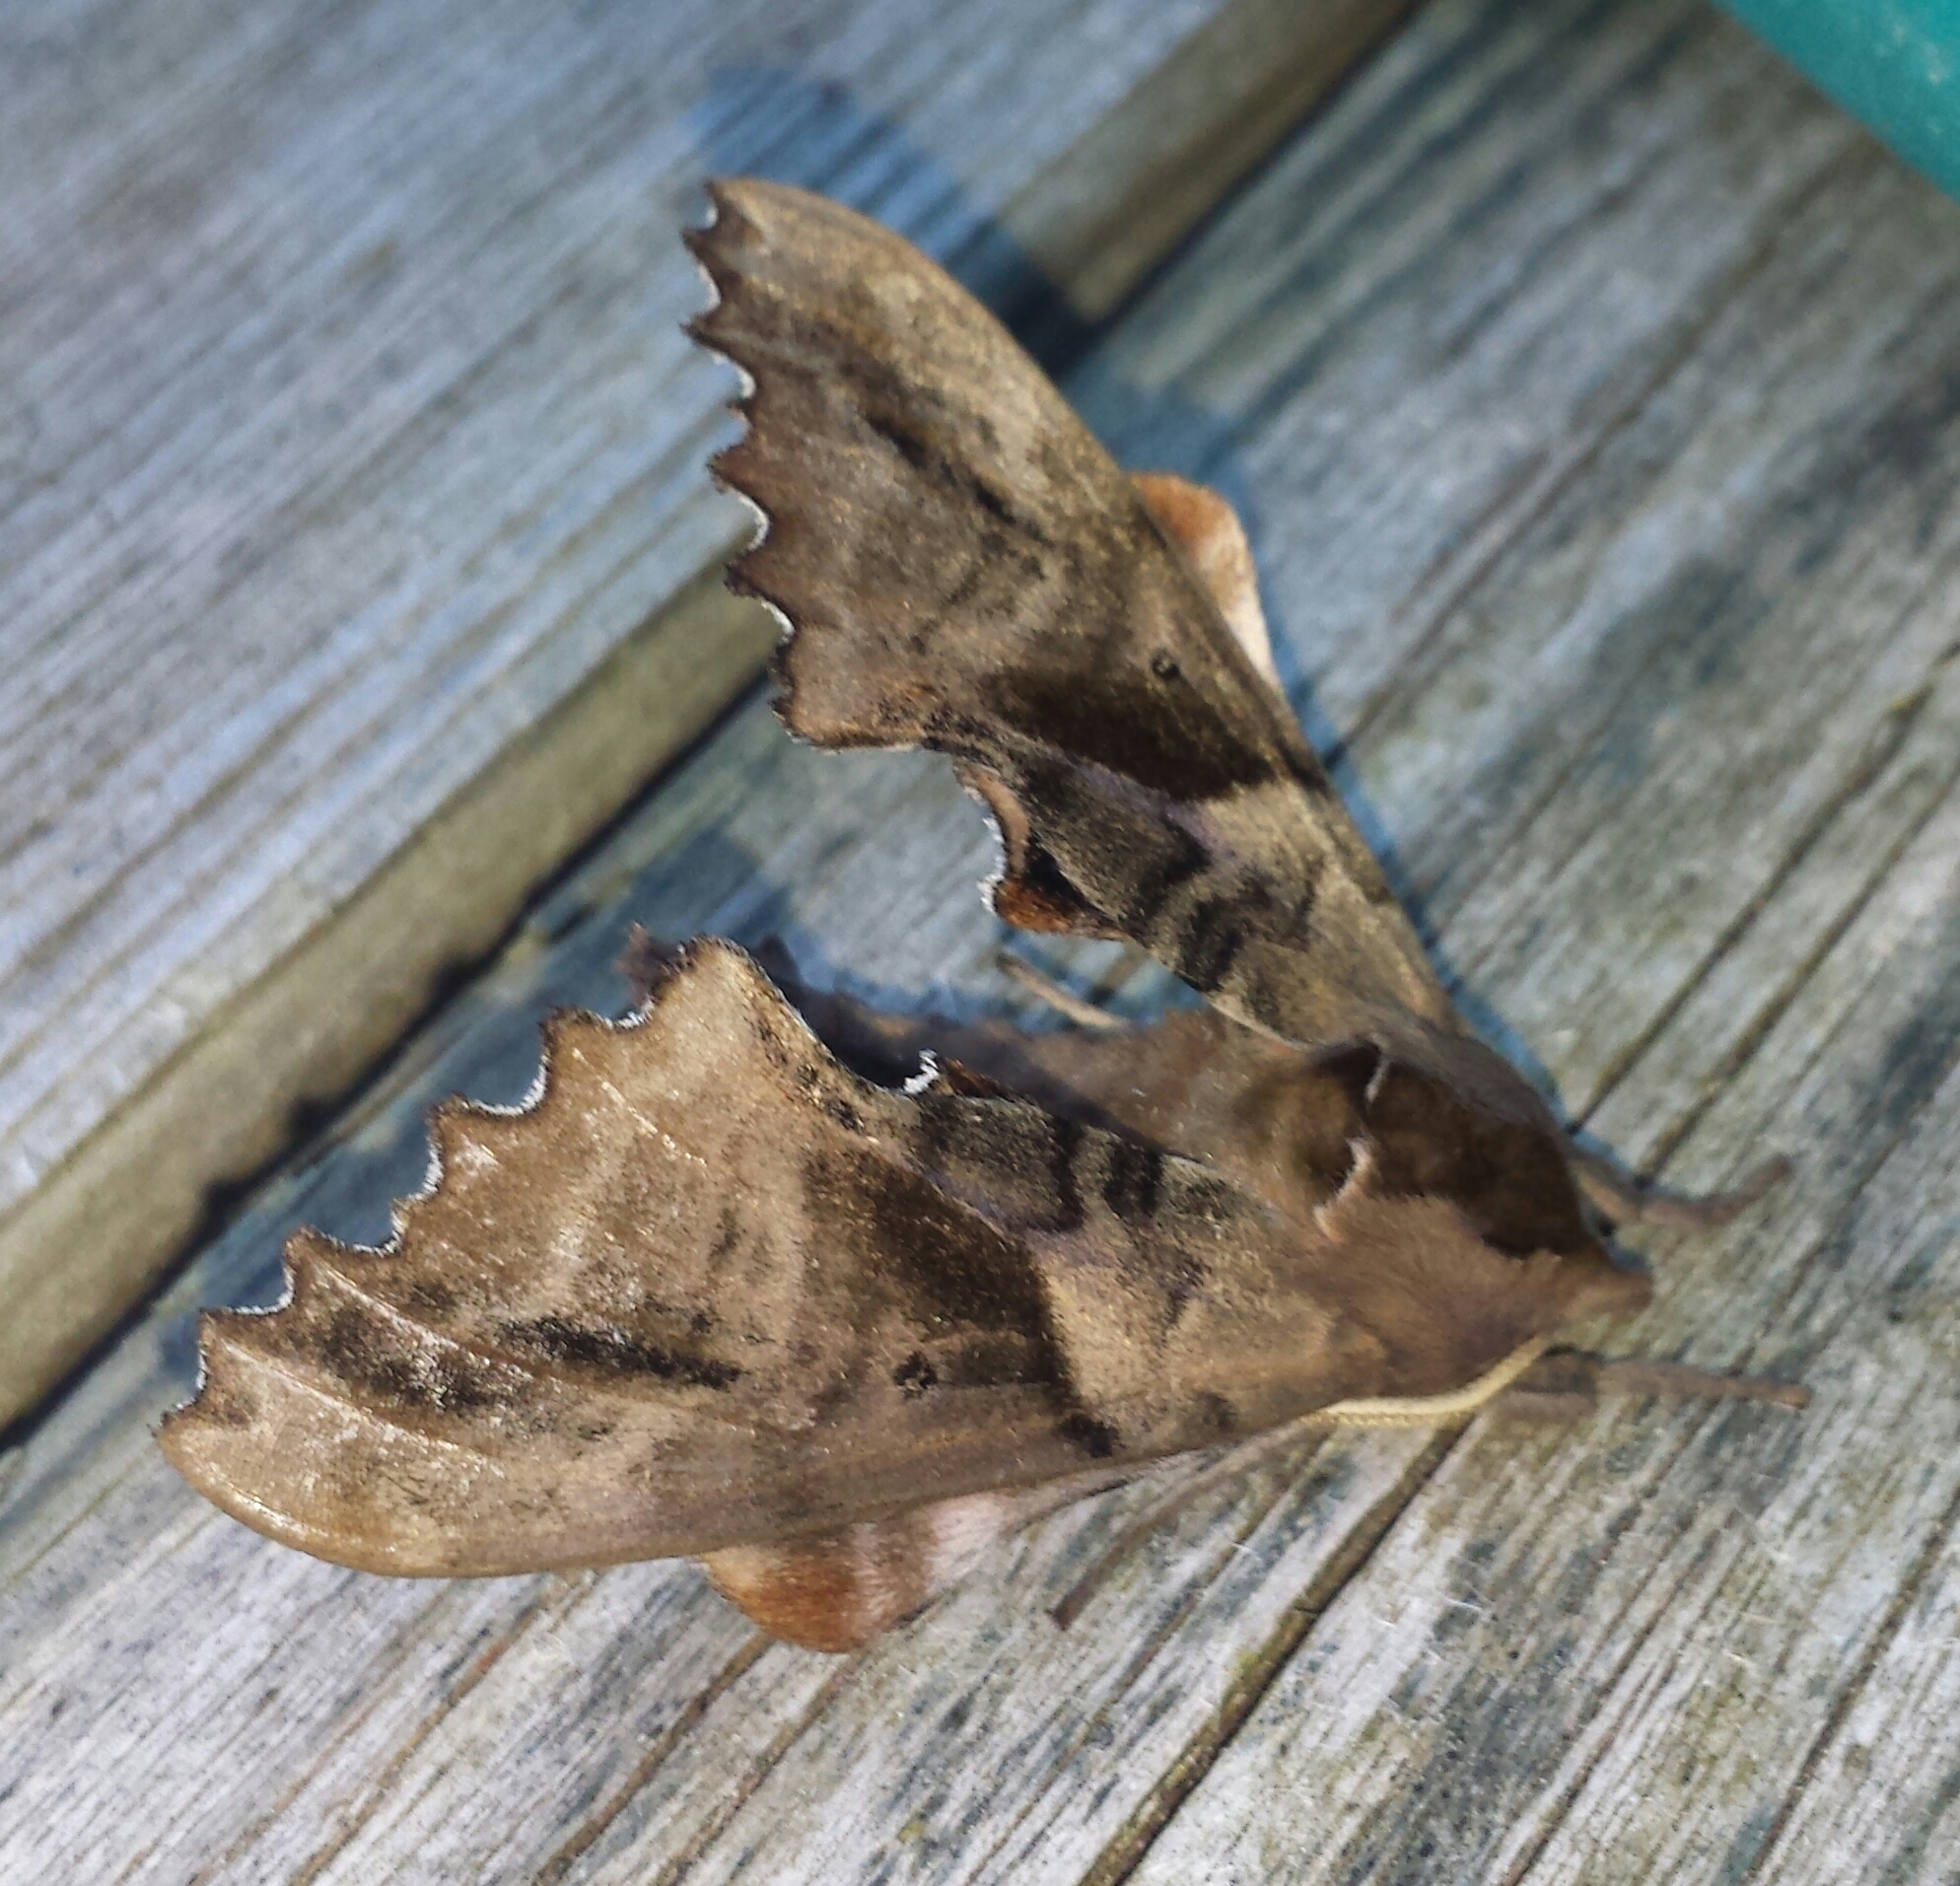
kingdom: Animalia
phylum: Arthropoda
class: Insecta
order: Lepidoptera
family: Sphingidae
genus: Paonias
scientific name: Paonias excaecata
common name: Blind-eyed sphinx
